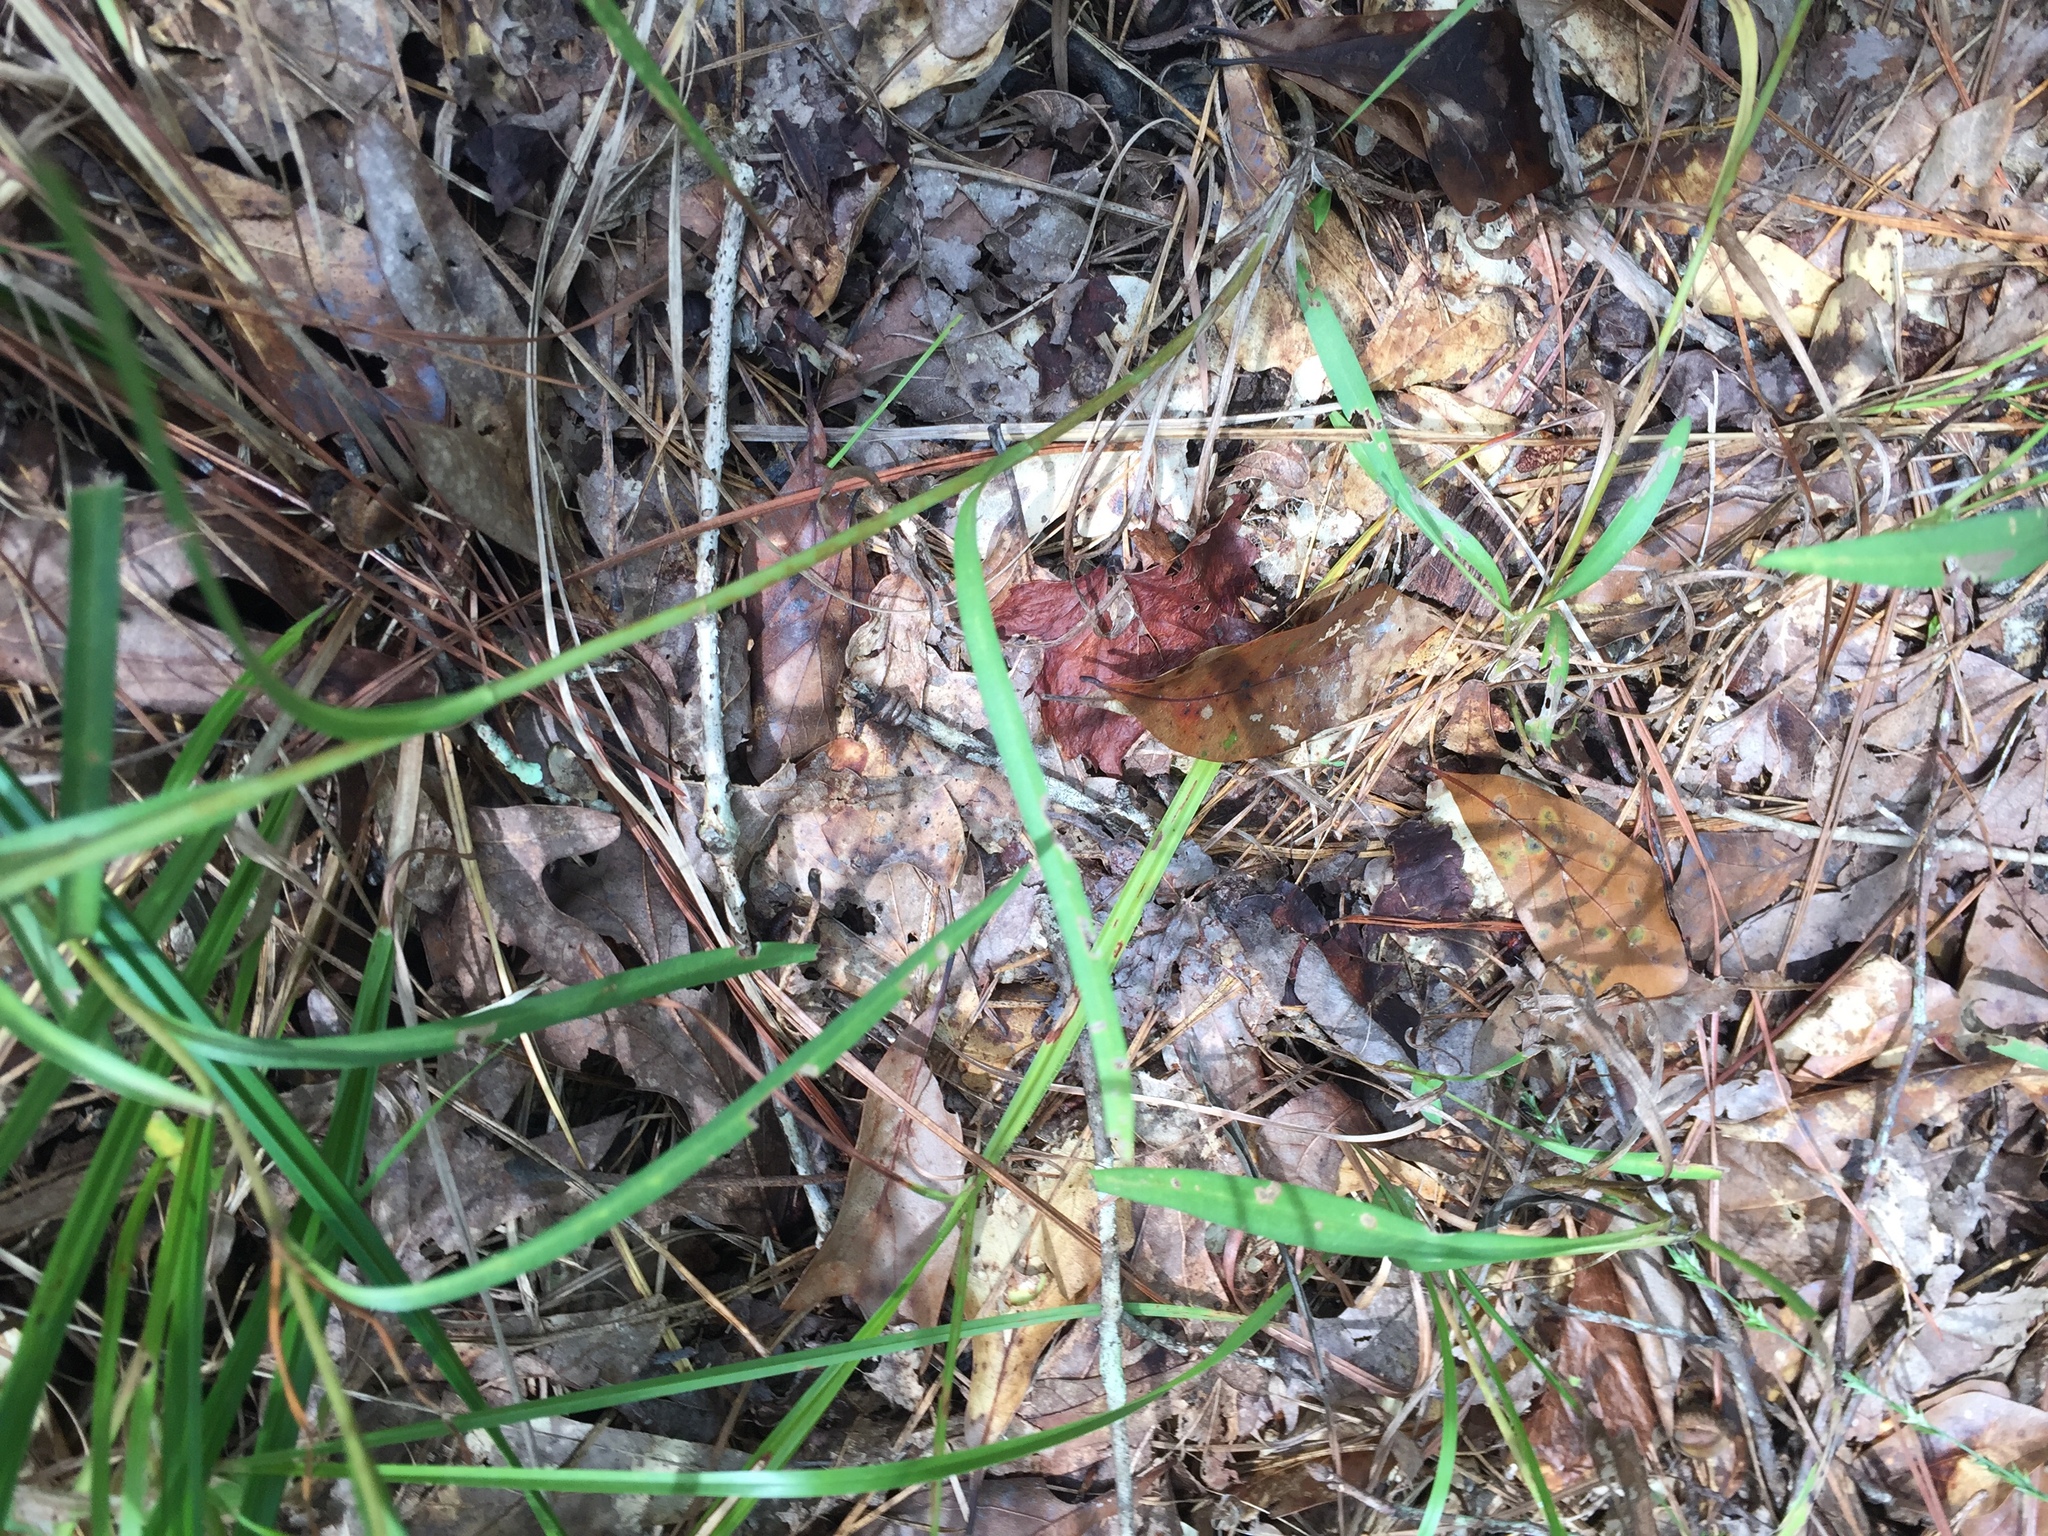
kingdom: Plantae
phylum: Tracheophyta
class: Magnoliopsida
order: Asterales
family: Asteraceae
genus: Eurybia
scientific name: Eurybia hemispherica
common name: Showy aster
